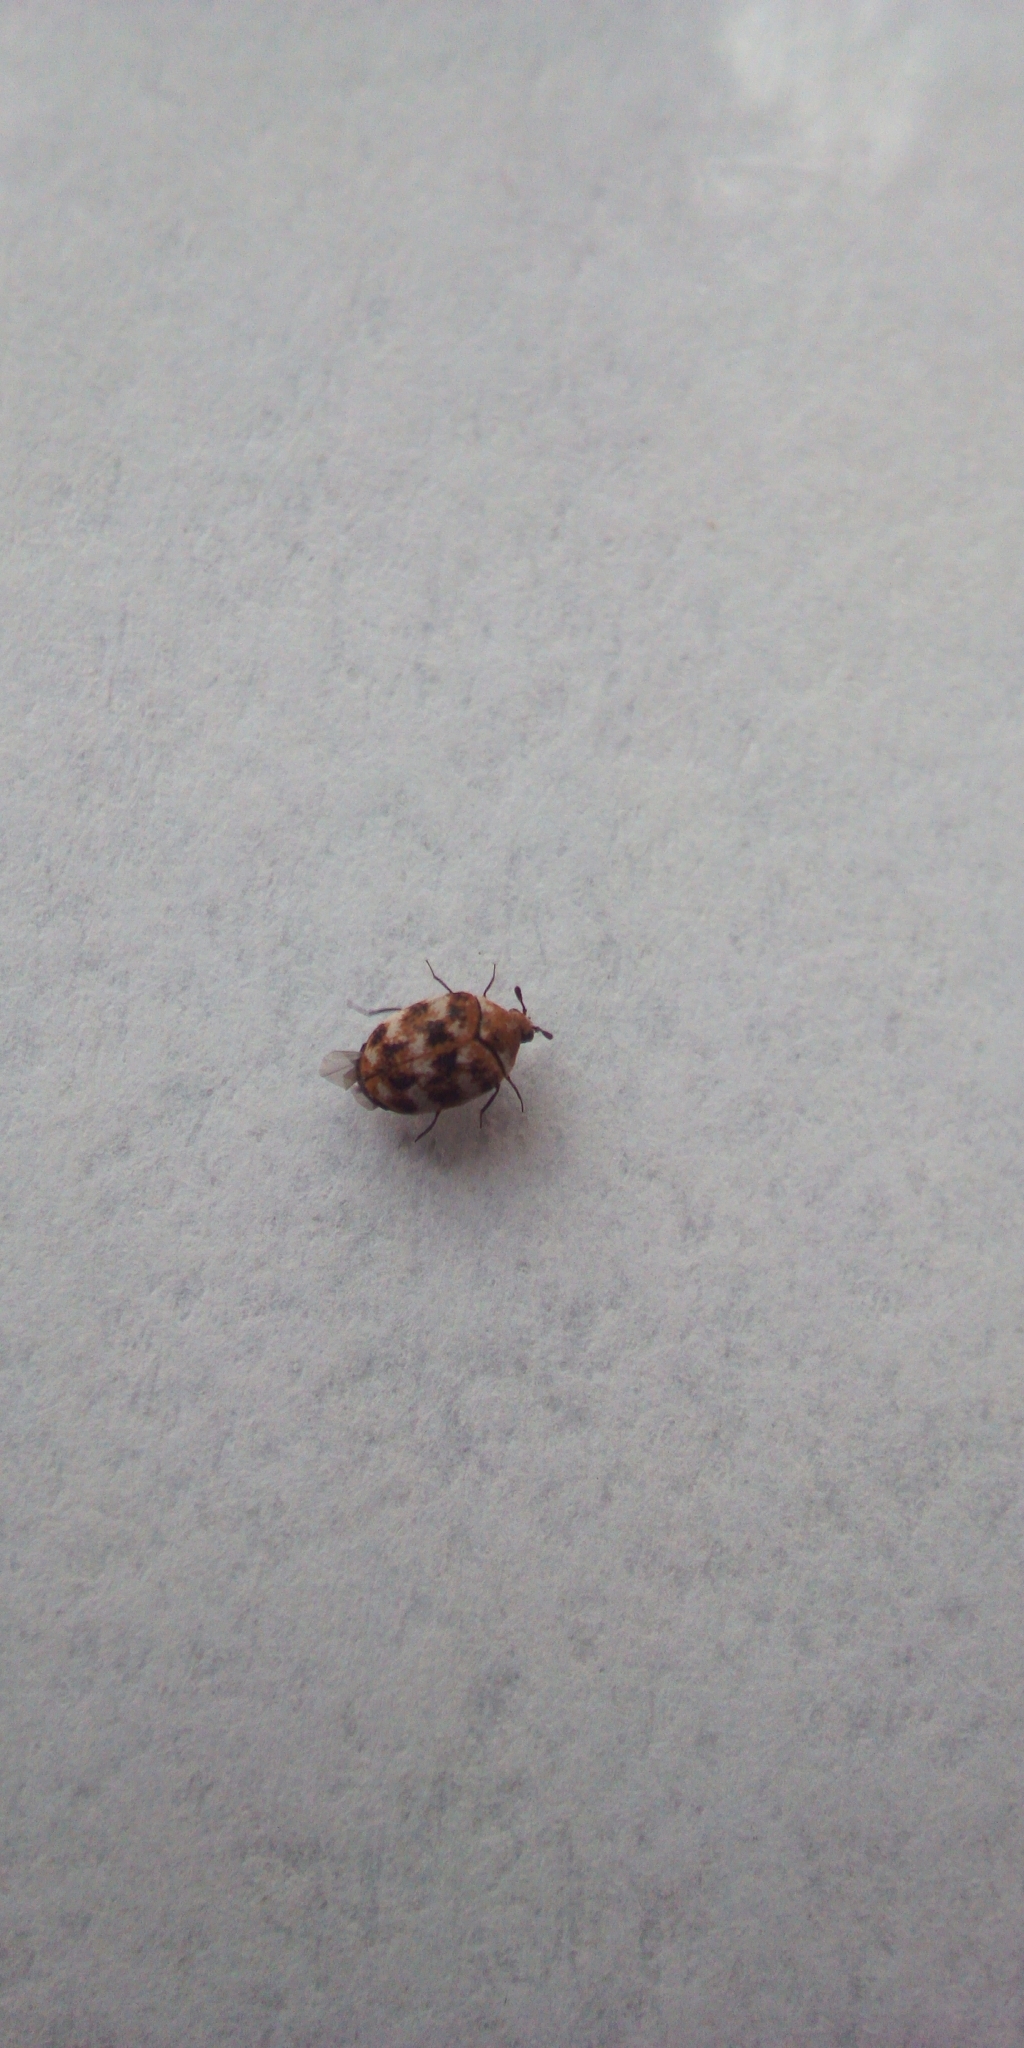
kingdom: Animalia
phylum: Arthropoda
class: Insecta
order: Coleoptera
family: Dermestidae
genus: Anthrenus
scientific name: Anthrenus verbasci
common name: Varied carpet beetle
